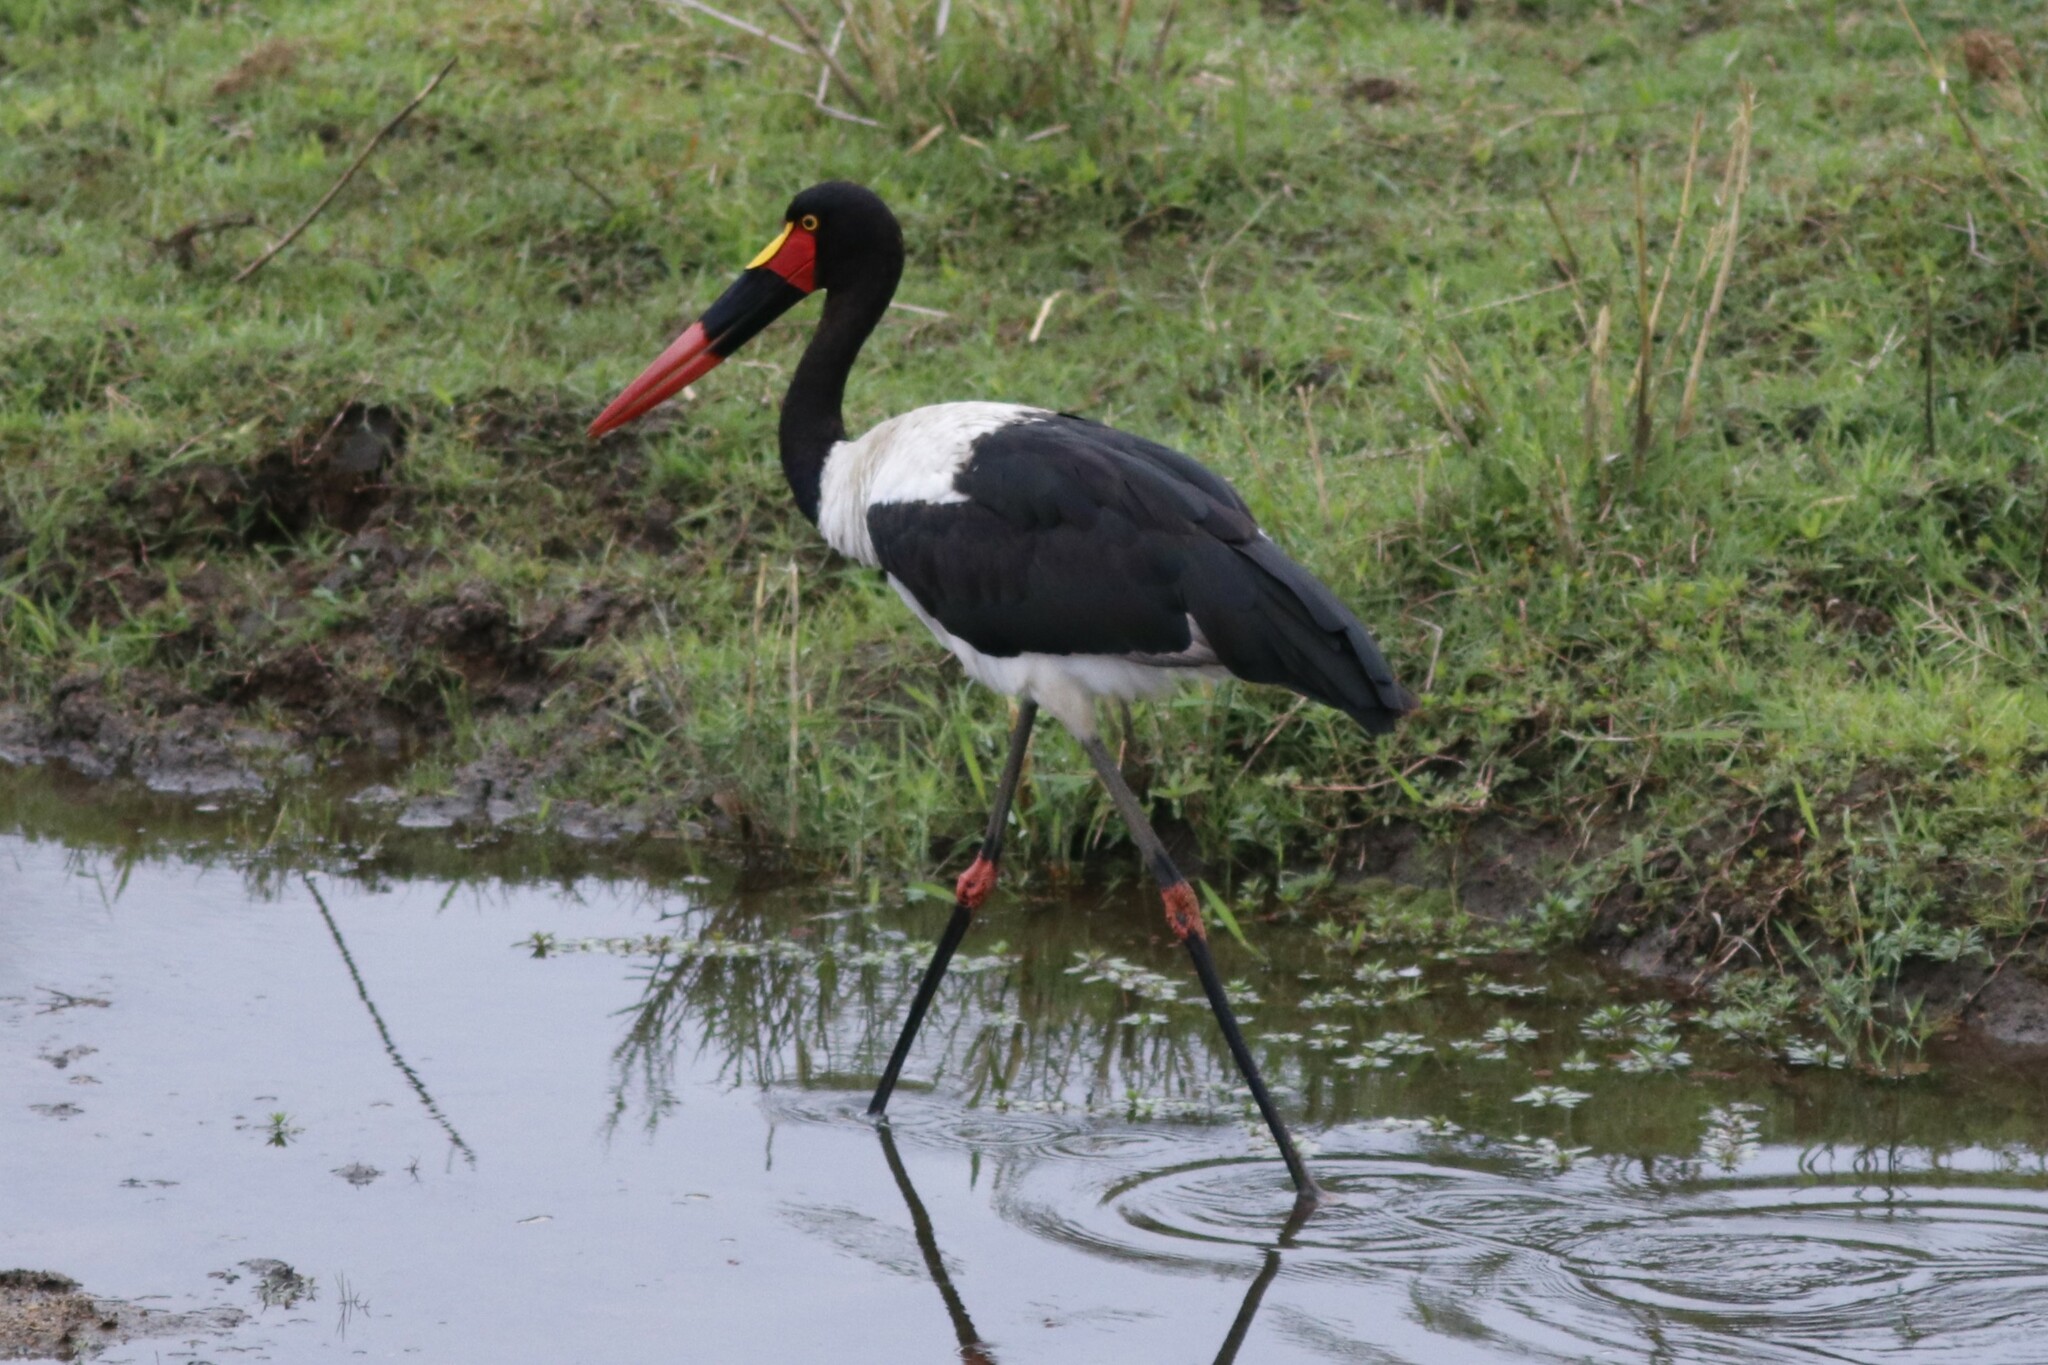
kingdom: Animalia
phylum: Chordata
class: Aves
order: Ciconiiformes
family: Ciconiidae
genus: Ephippiorhynchus
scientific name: Ephippiorhynchus senegalensis
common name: Saddle-billed stork
